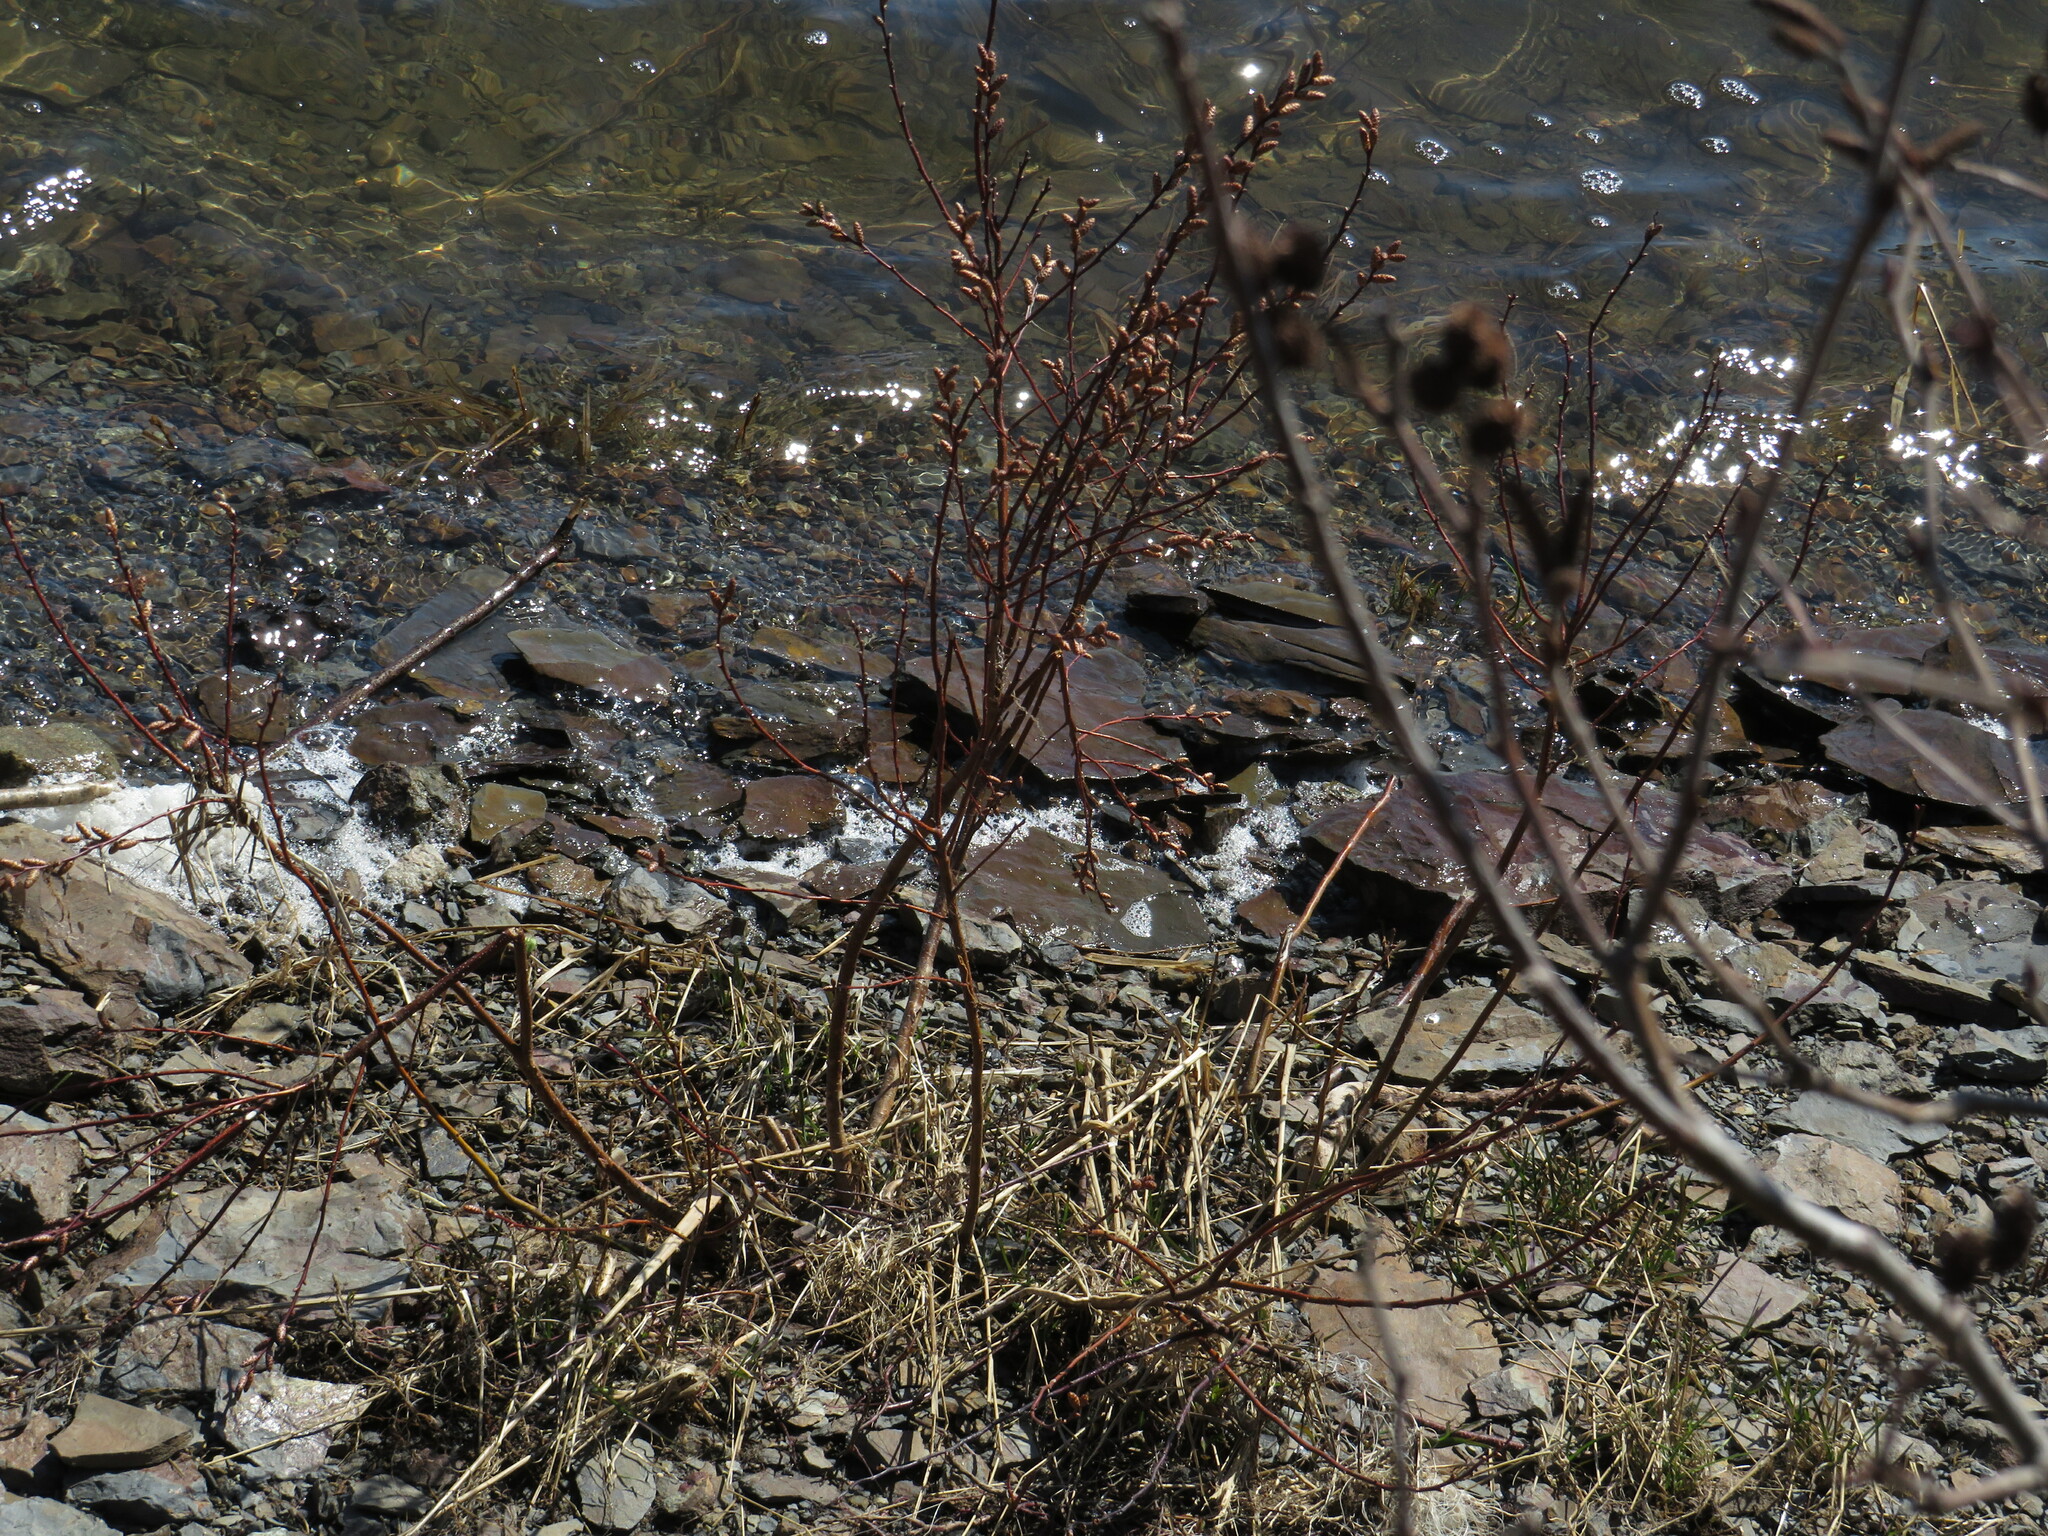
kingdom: Plantae
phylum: Tracheophyta
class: Magnoliopsida
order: Fagales
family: Myricaceae
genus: Myrica
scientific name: Myrica gale
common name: Sweet gale
